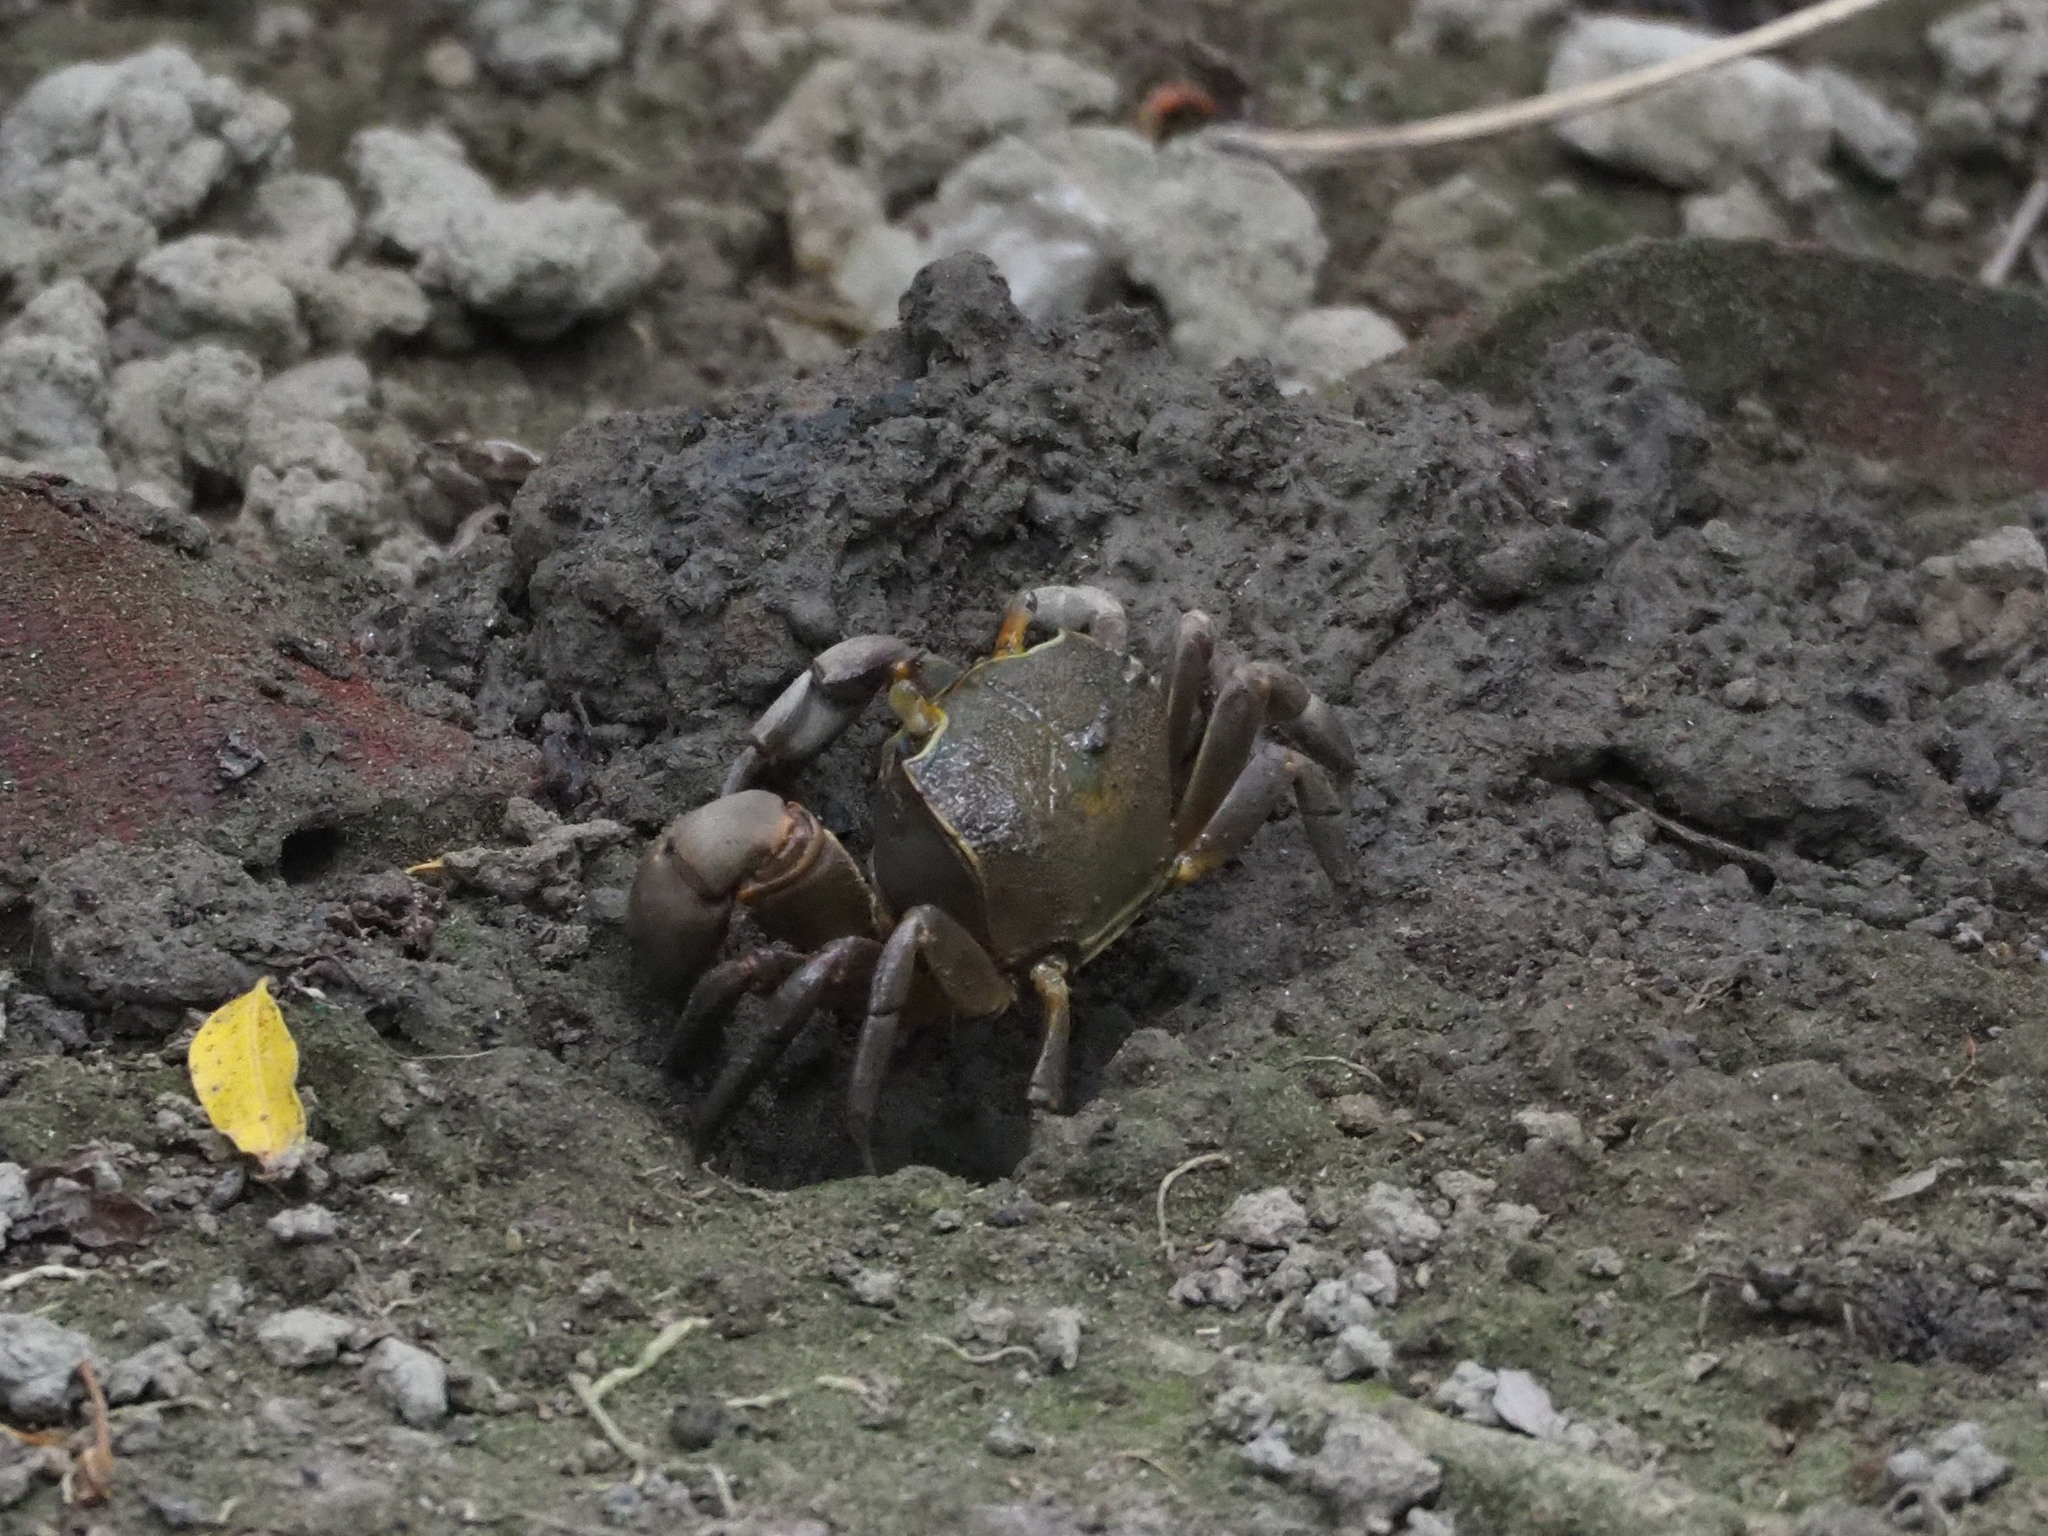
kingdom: Animalia
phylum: Arthropoda
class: Malacostraca
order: Decapoda
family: Varunidae
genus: Chasmagnathus
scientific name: Chasmagnathus convexus
